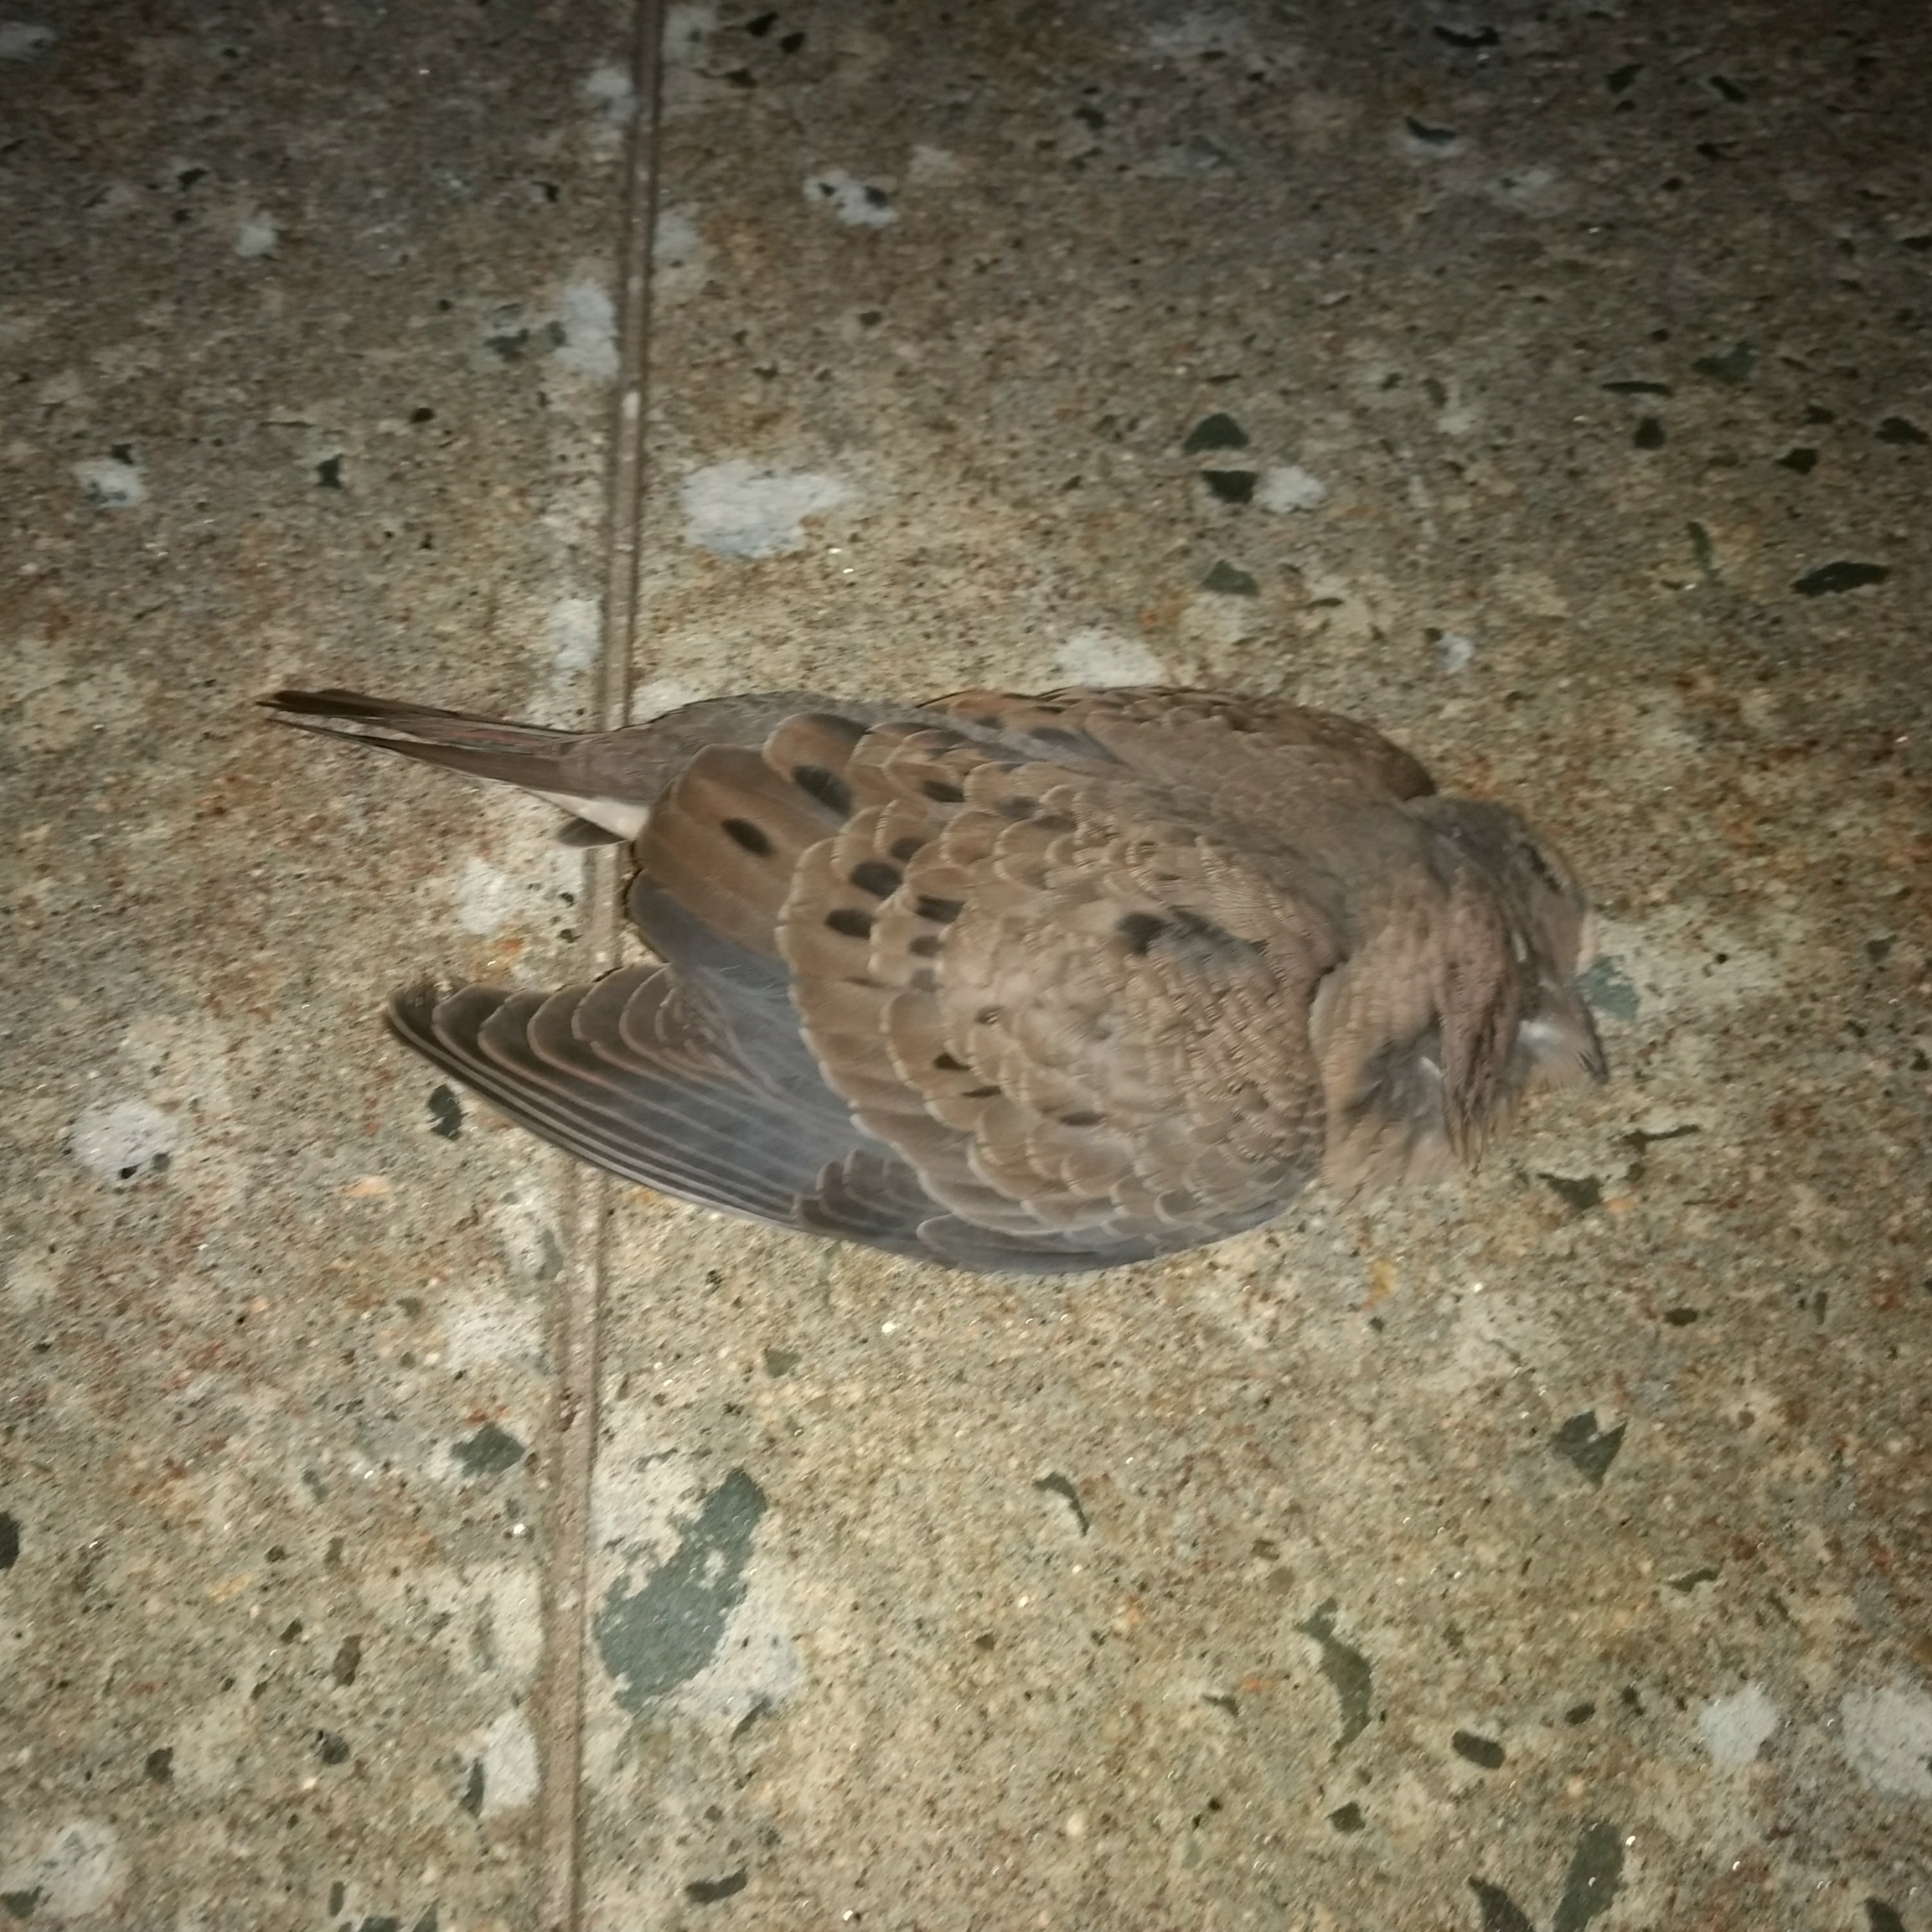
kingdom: Animalia
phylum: Chordata
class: Aves
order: Columbiformes
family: Columbidae
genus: Zenaida
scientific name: Zenaida macroura
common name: Mourning dove
